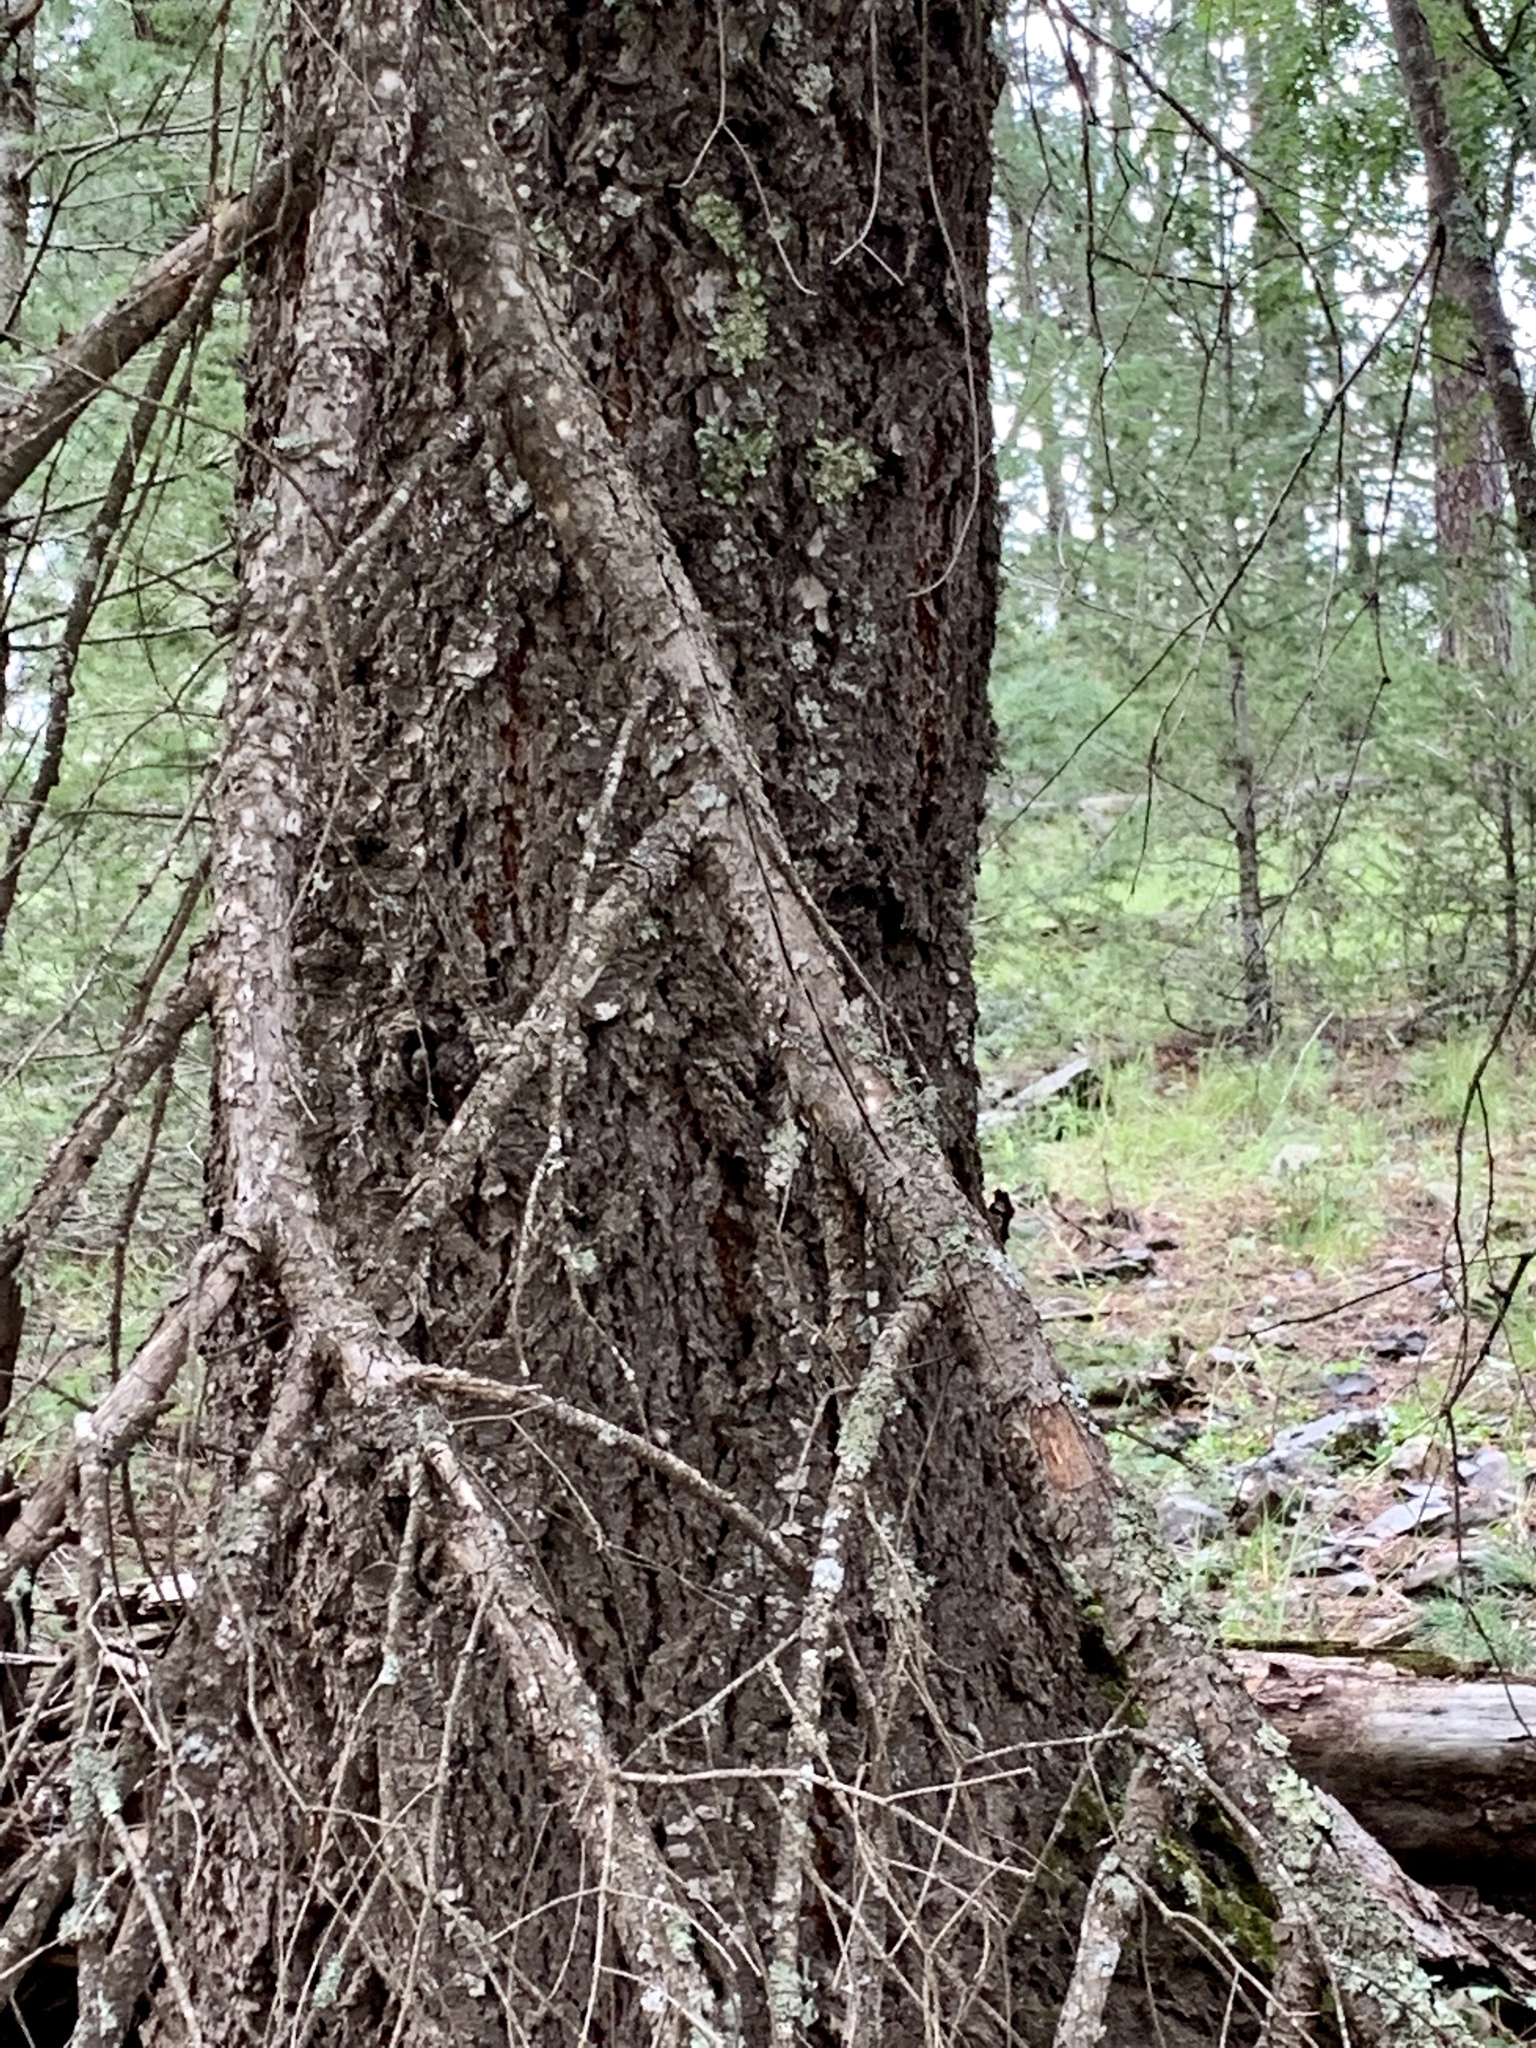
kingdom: Plantae
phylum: Tracheophyta
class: Pinopsida
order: Pinales
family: Pinaceae
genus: Pseudotsuga
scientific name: Pseudotsuga menziesii
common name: Douglas fir
